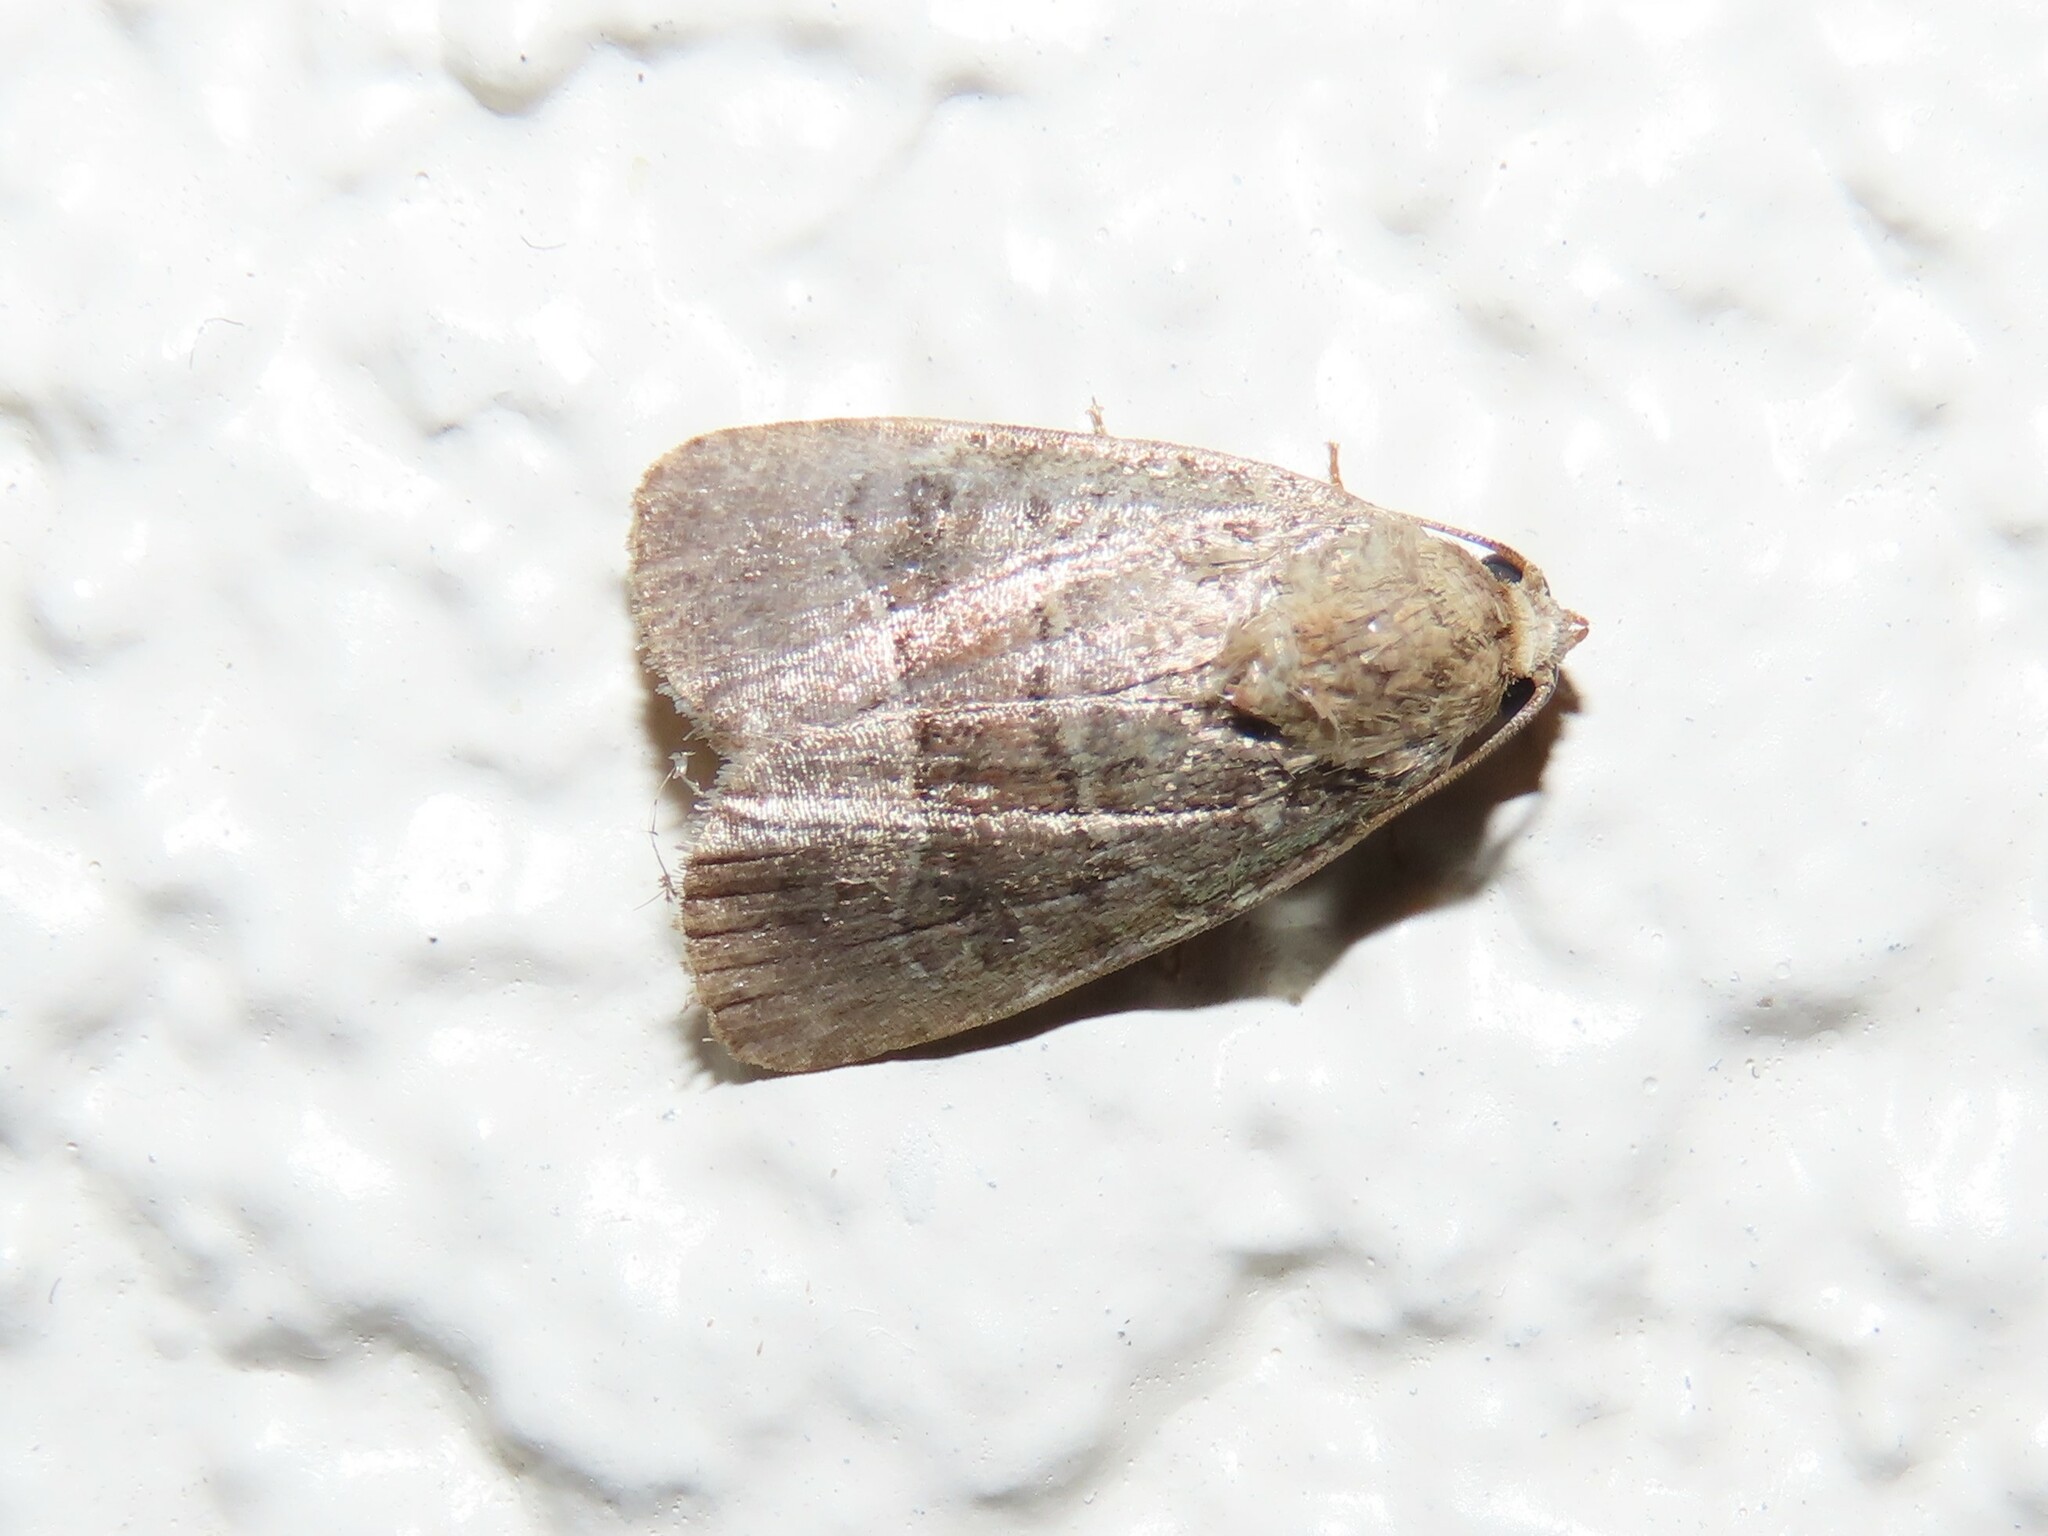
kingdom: Animalia
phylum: Arthropoda
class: Insecta
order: Lepidoptera
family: Noctuidae
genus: Elaphria
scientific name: Elaphria fuscimacula
